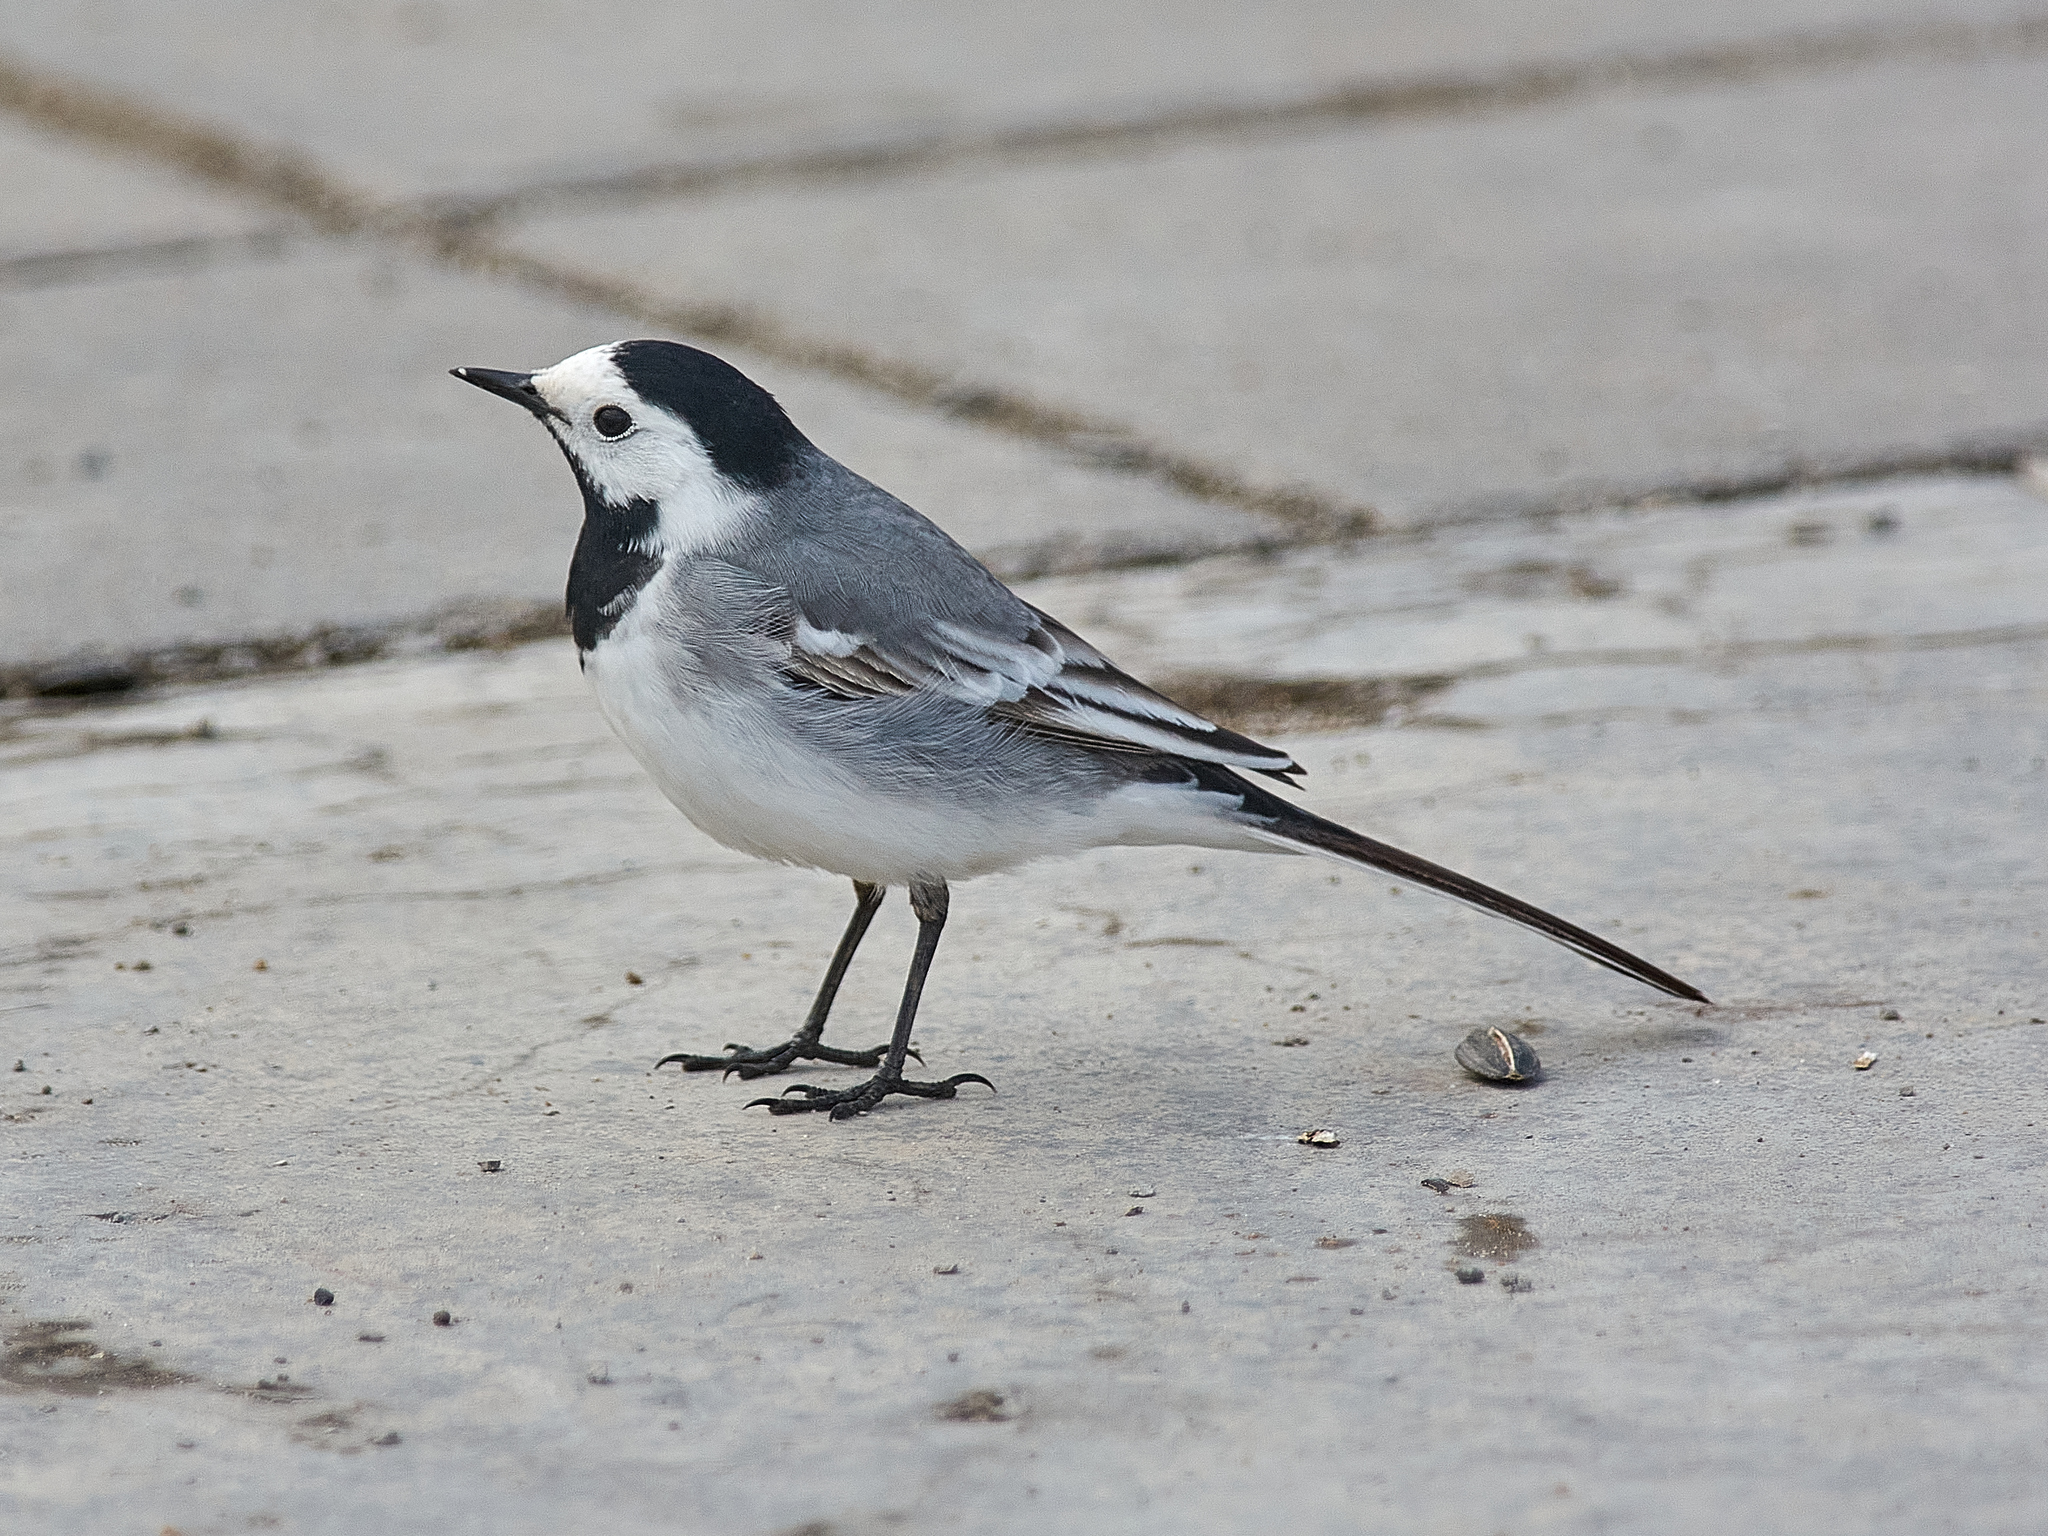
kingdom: Animalia
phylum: Chordata
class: Aves
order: Passeriformes
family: Motacillidae
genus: Motacilla
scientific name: Motacilla alba
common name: White wagtail
